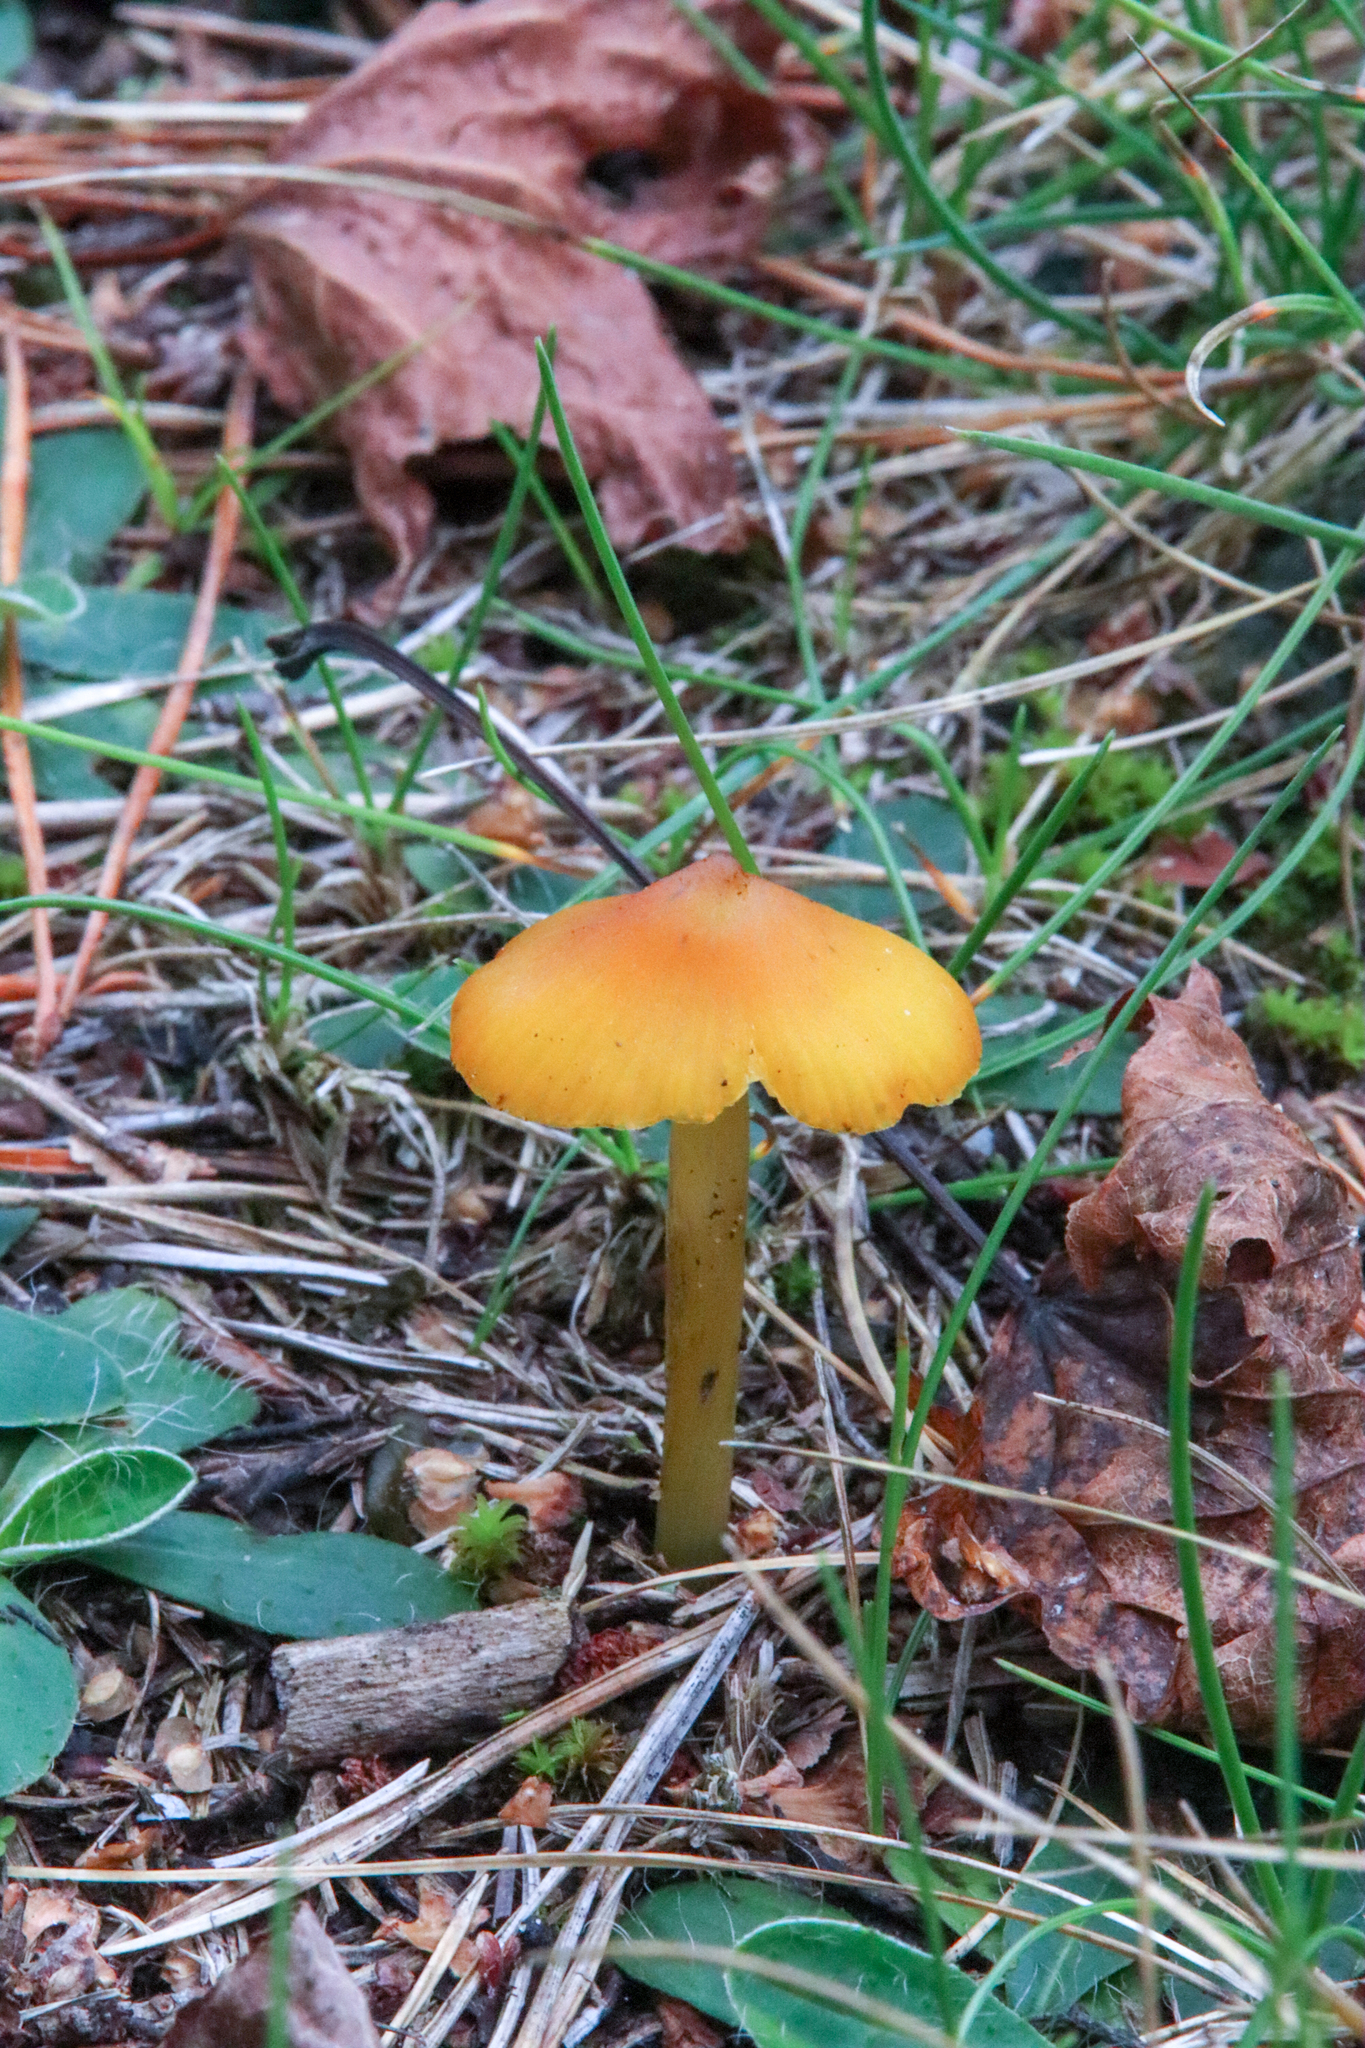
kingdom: Fungi
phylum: Basidiomycota
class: Agaricomycetes
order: Agaricales
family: Hygrophoraceae
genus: Hygrocybe
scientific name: Hygrocybe conica
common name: Blackening wax-cap
